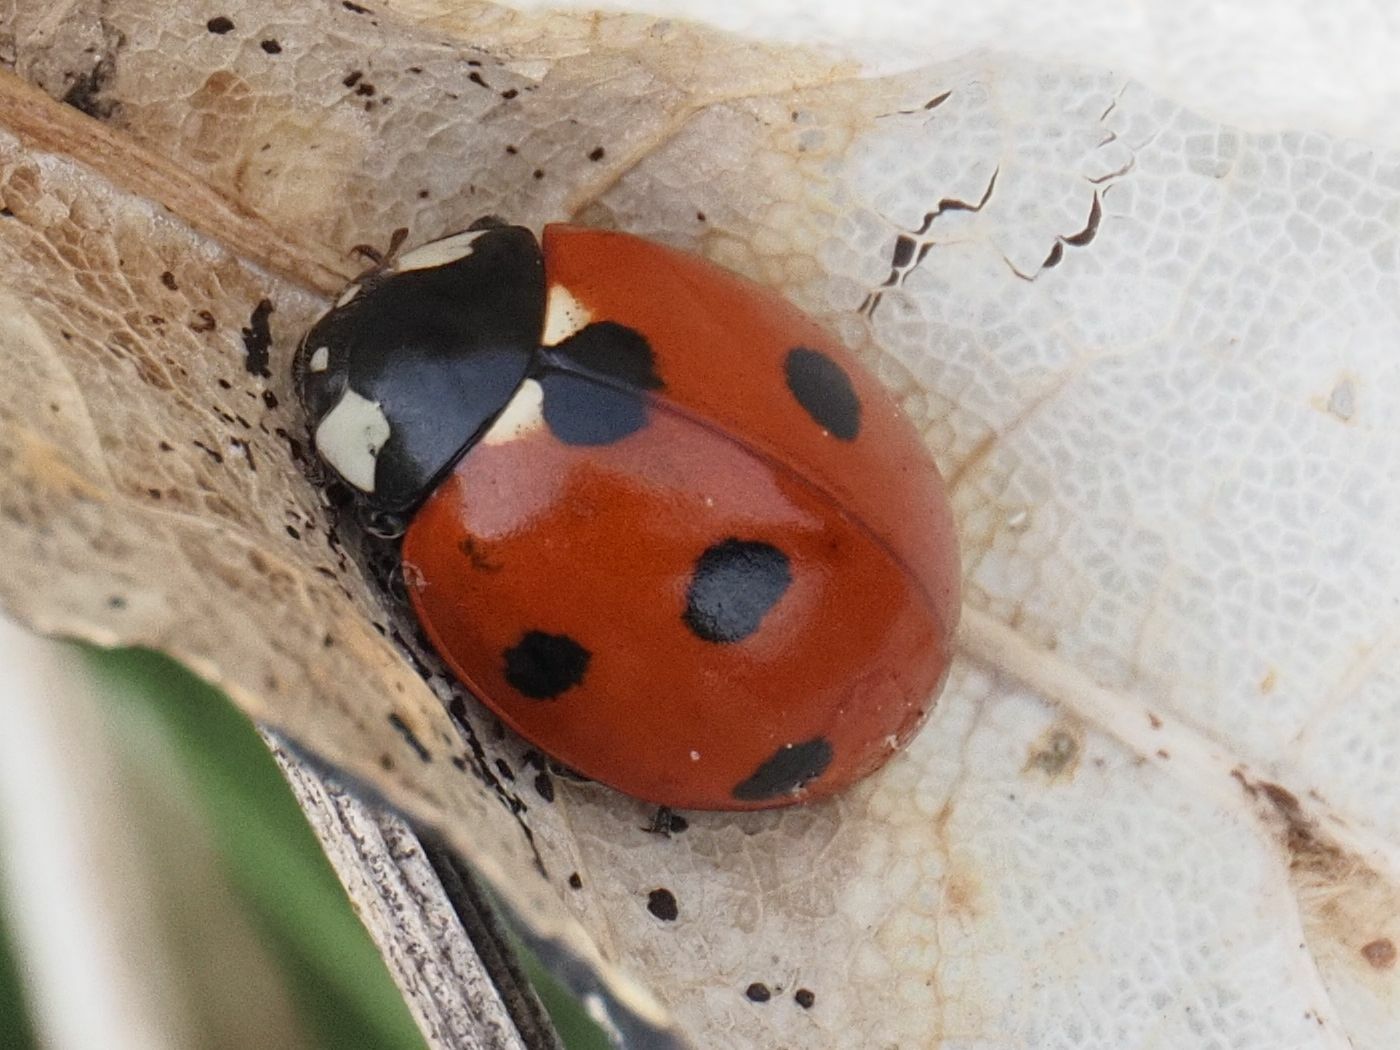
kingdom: Animalia
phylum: Arthropoda
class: Insecta
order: Coleoptera
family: Coccinellidae
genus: Coccinella
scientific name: Coccinella septempunctata
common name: Sevenspotted lady beetle
